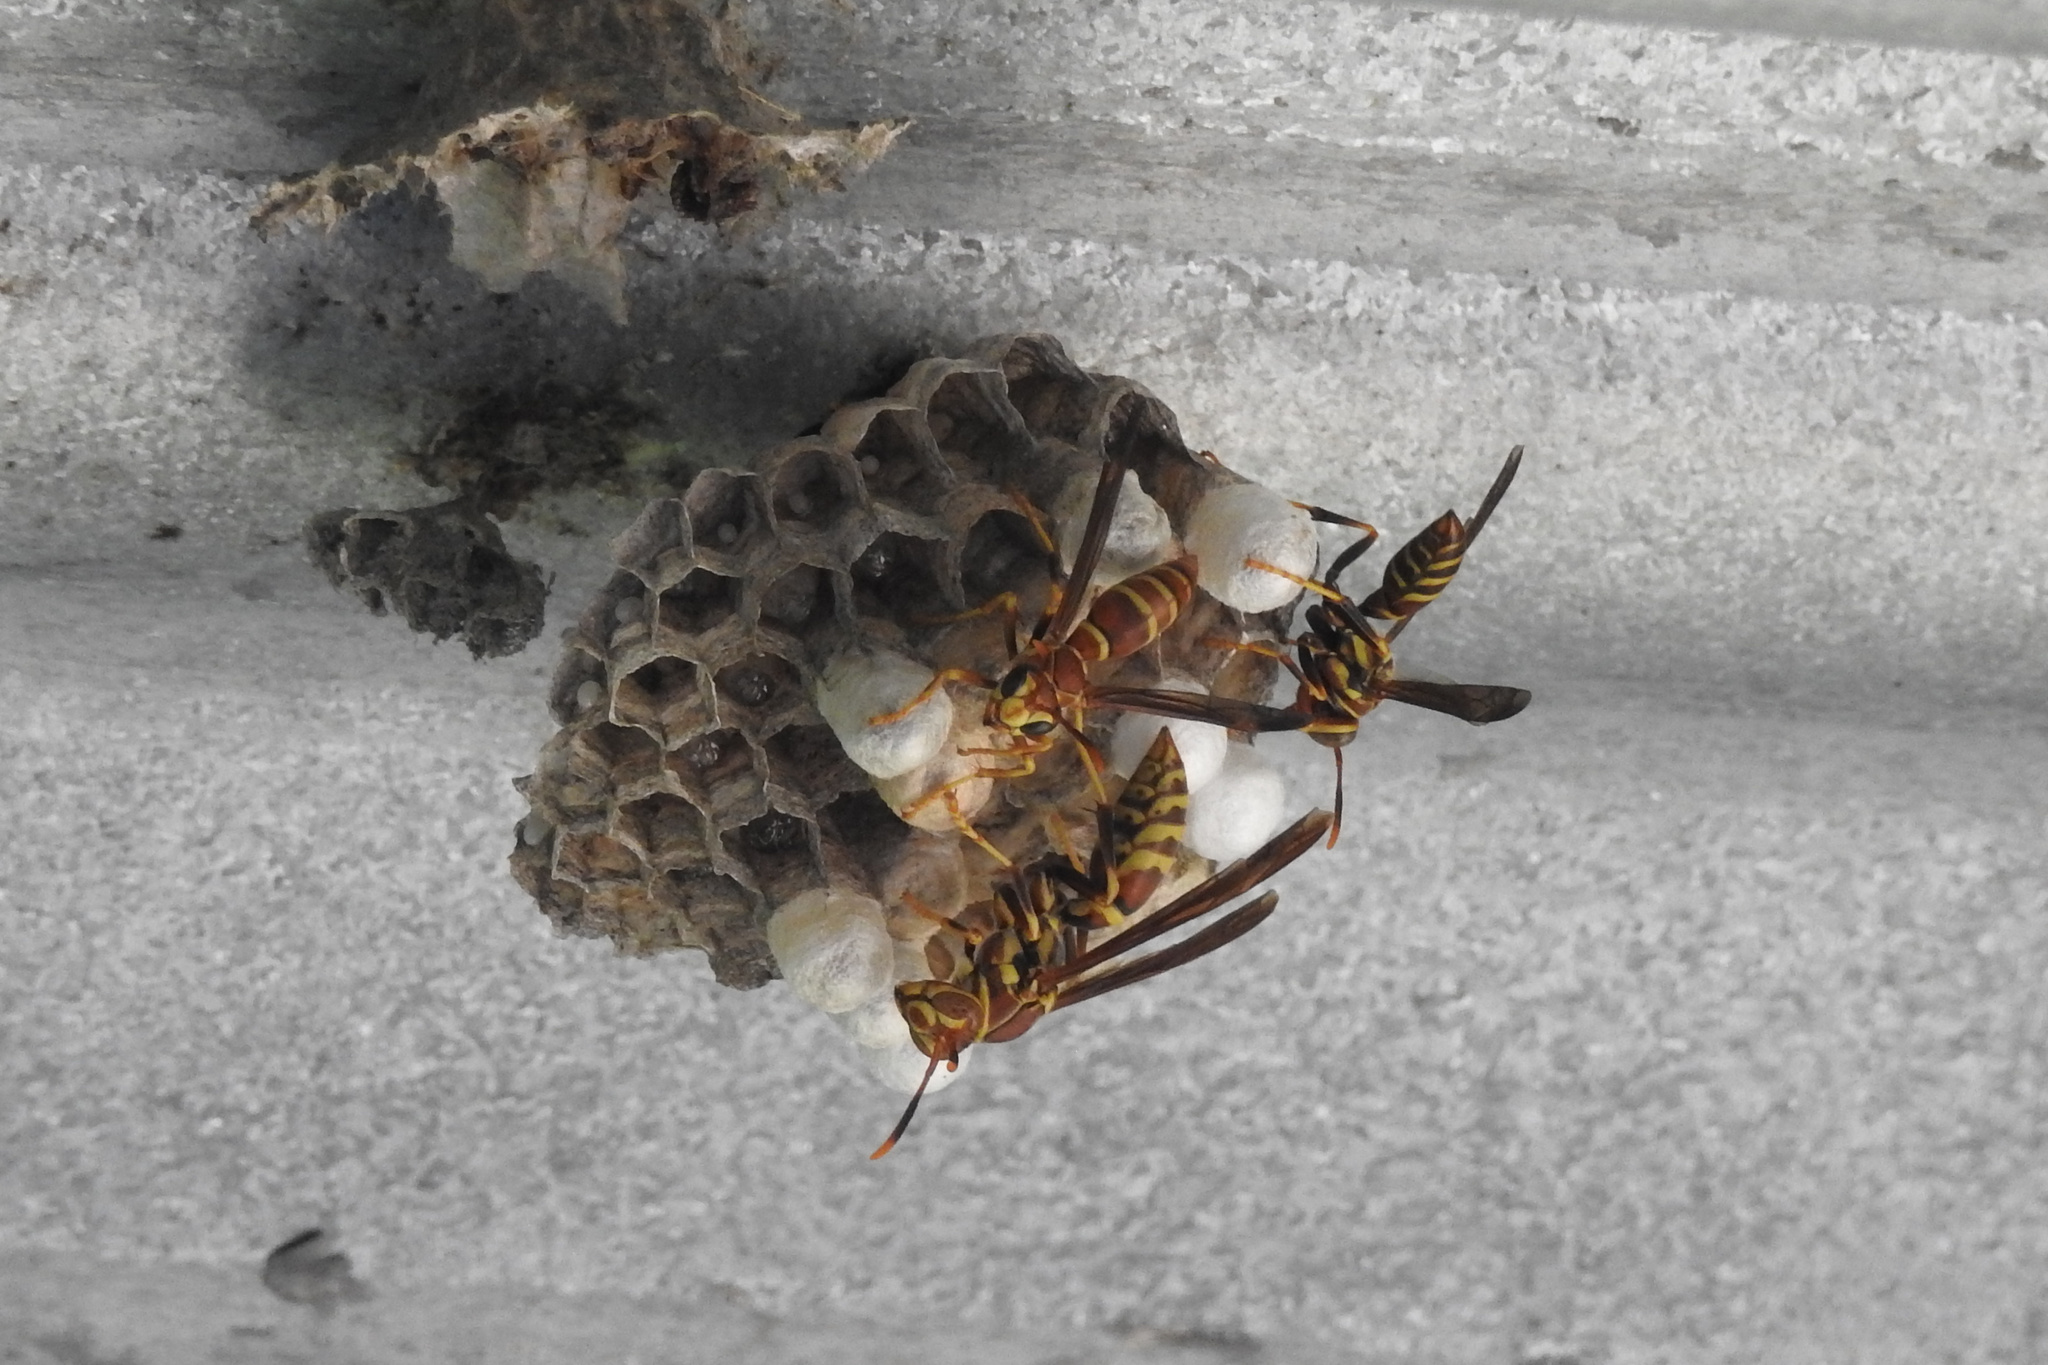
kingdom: Animalia
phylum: Arthropoda
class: Insecta
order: Hymenoptera
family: Eumenidae
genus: Polistes
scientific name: Polistes exclamans
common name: Paper wasp
